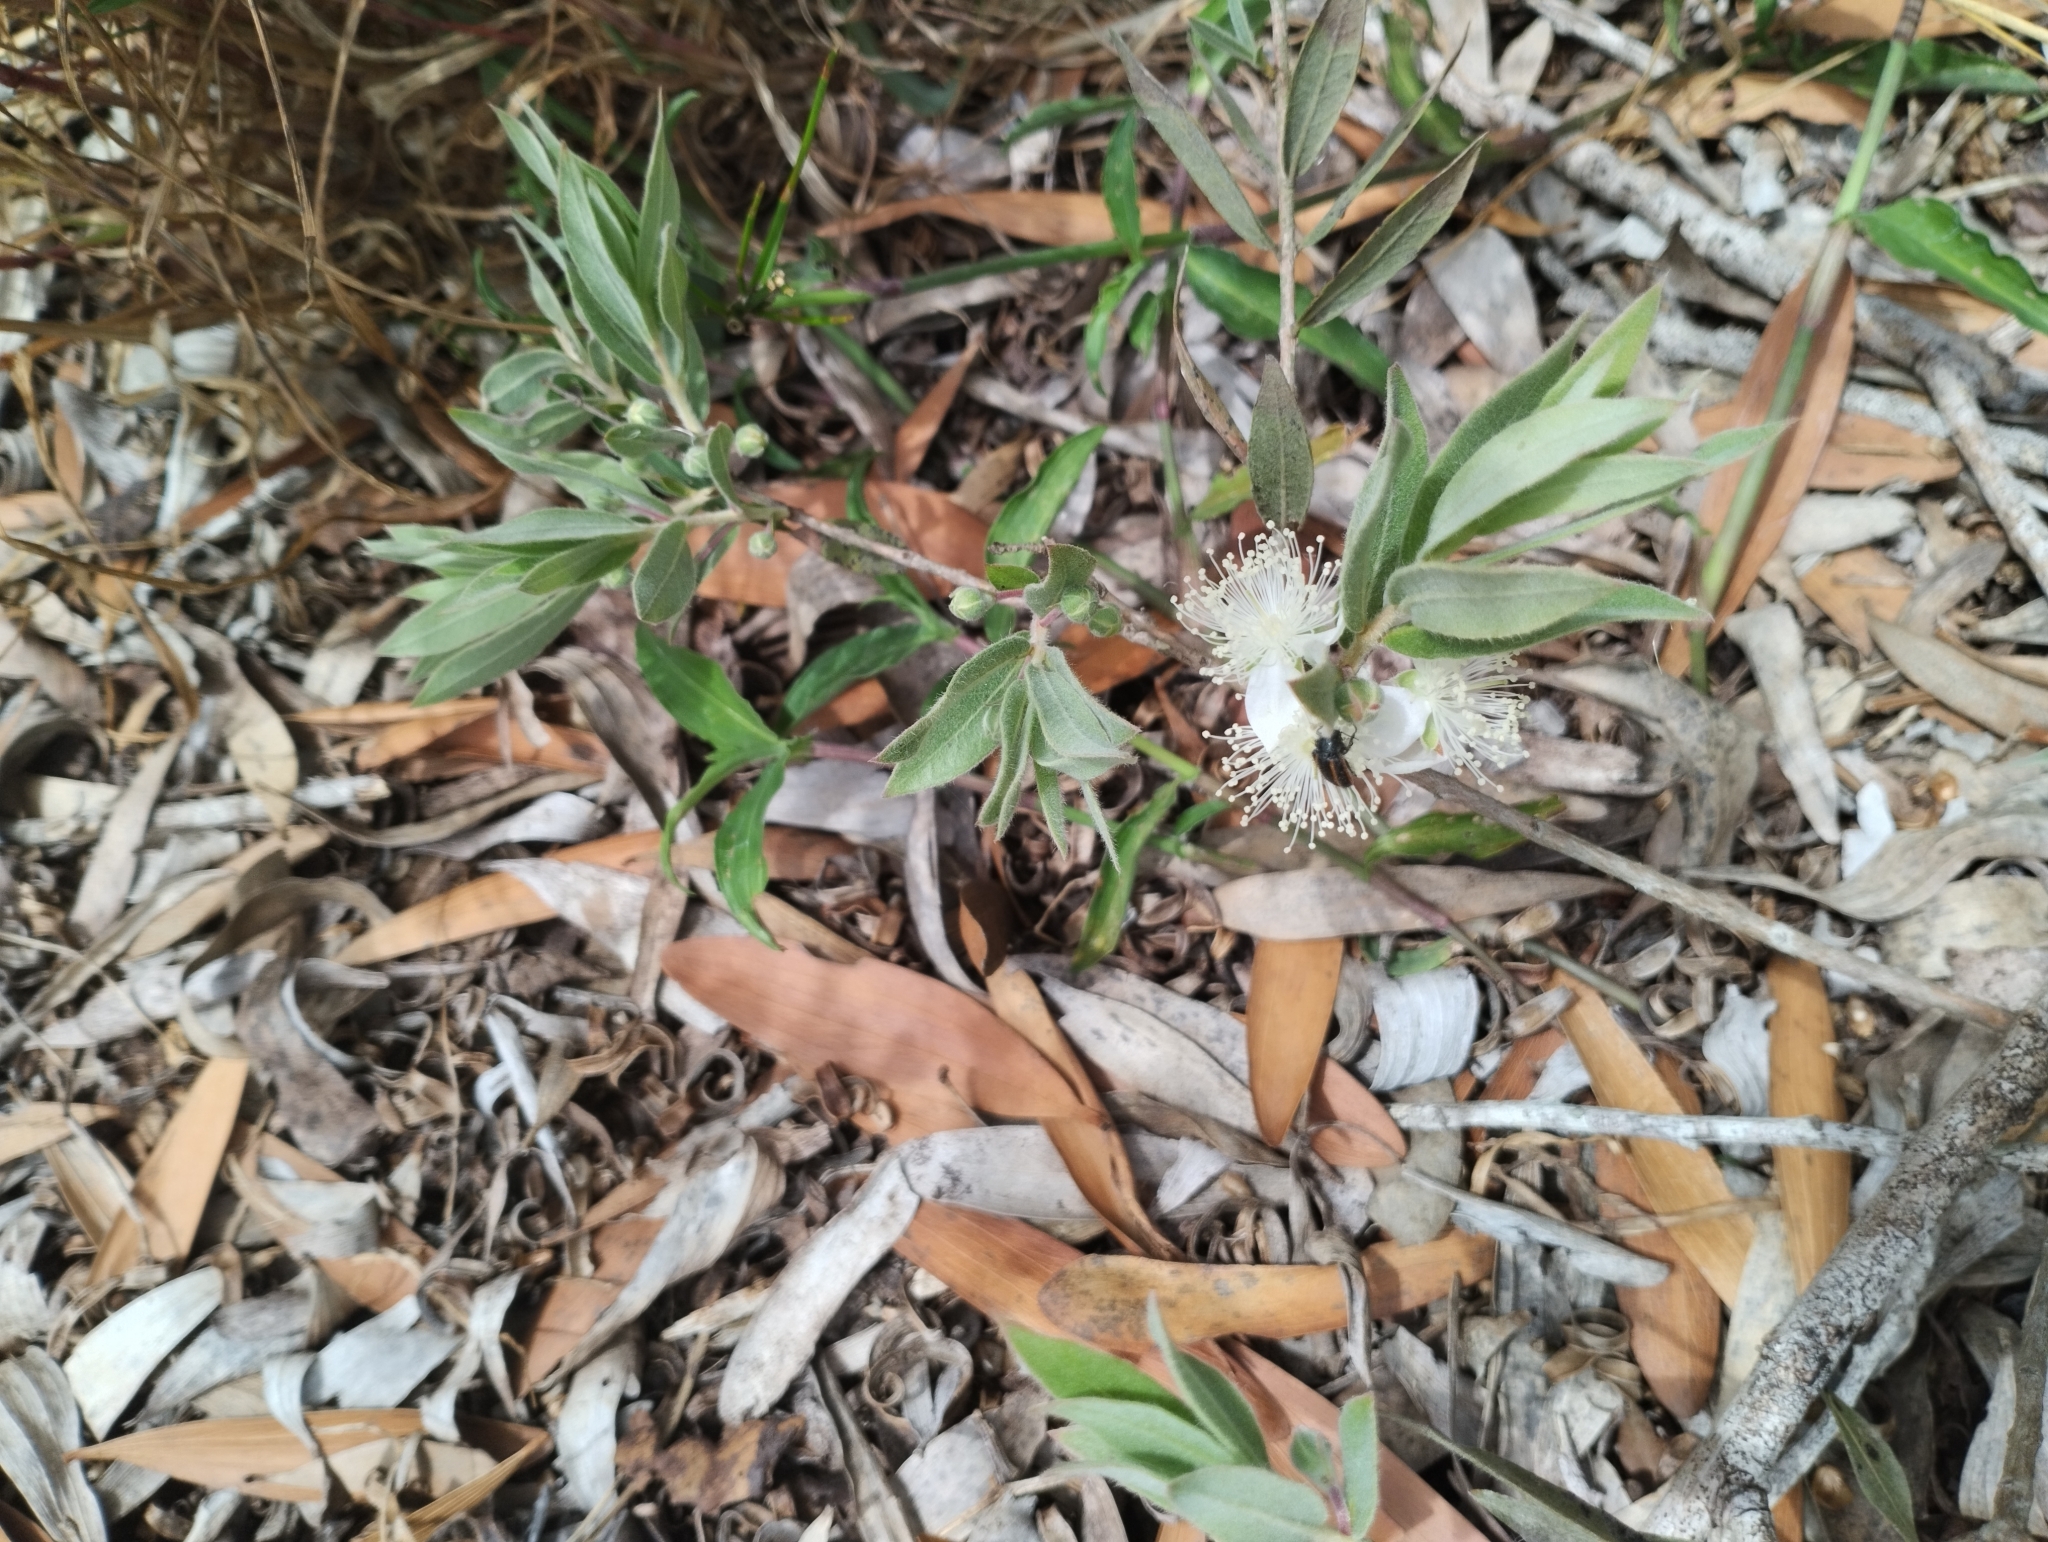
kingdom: Plantae
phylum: Tracheophyta
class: Magnoliopsida
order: Myrtales
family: Myrtaceae
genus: Psidium
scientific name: Psidium salutare
